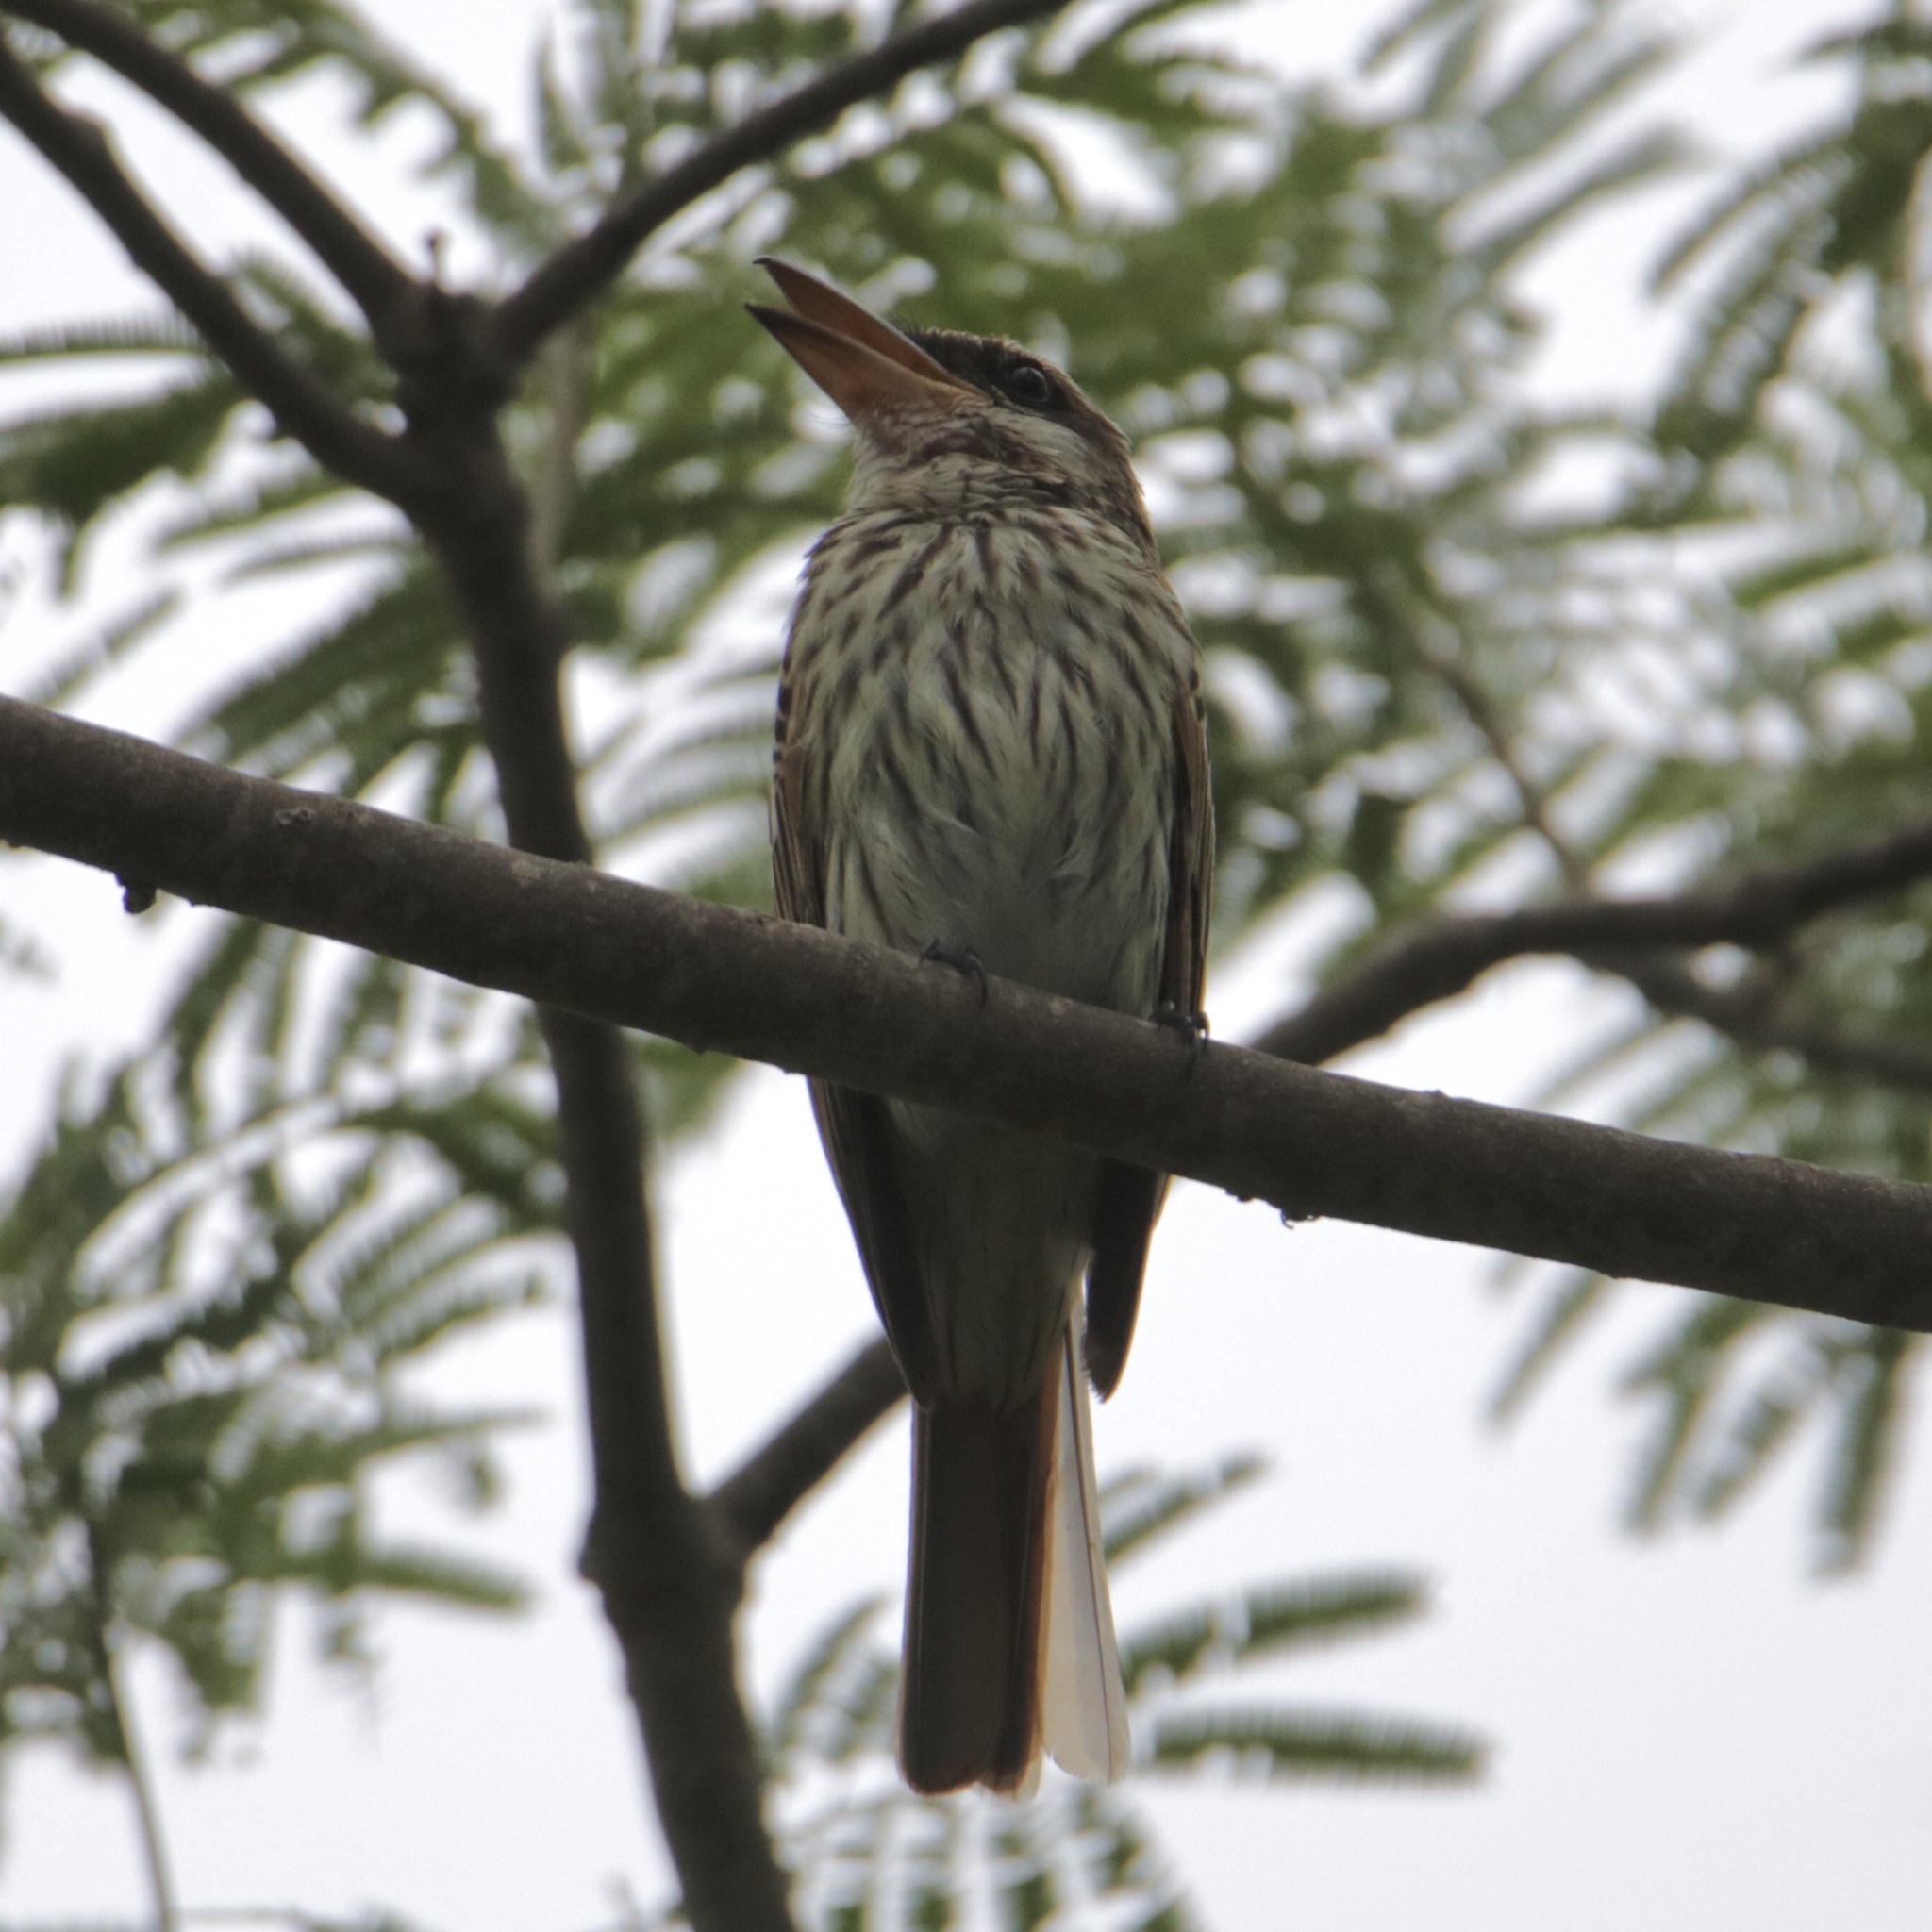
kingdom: Animalia
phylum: Chordata
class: Aves
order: Passeriformes
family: Tyrannidae
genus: Myiodynastes
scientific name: Myiodynastes maculatus
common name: Streaked flycatcher
